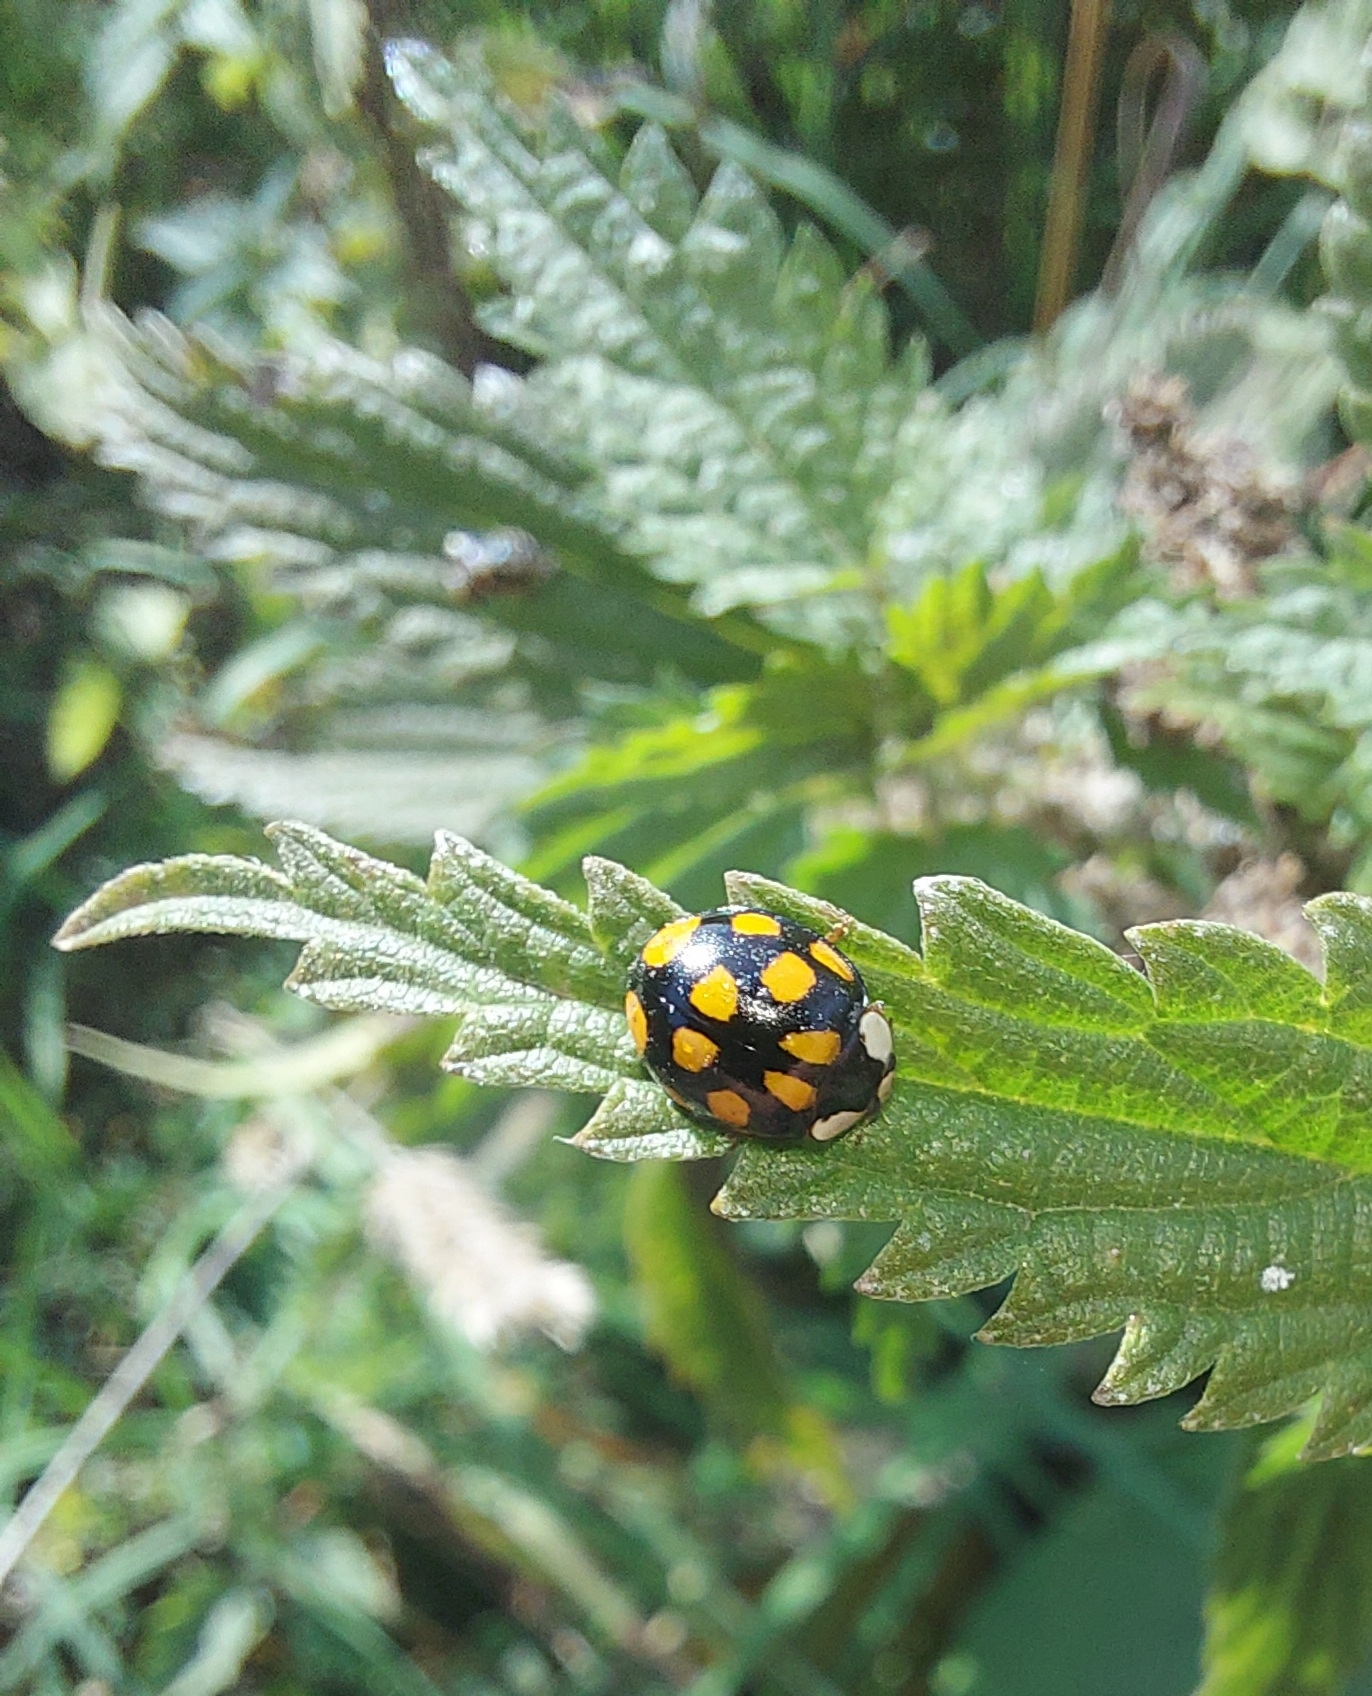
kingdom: Animalia
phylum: Arthropoda
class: Insecta
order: Coleoptera
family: Coccinellidae
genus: Harmonia
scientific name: Harmonia axyridis
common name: Harlequin ladybird
